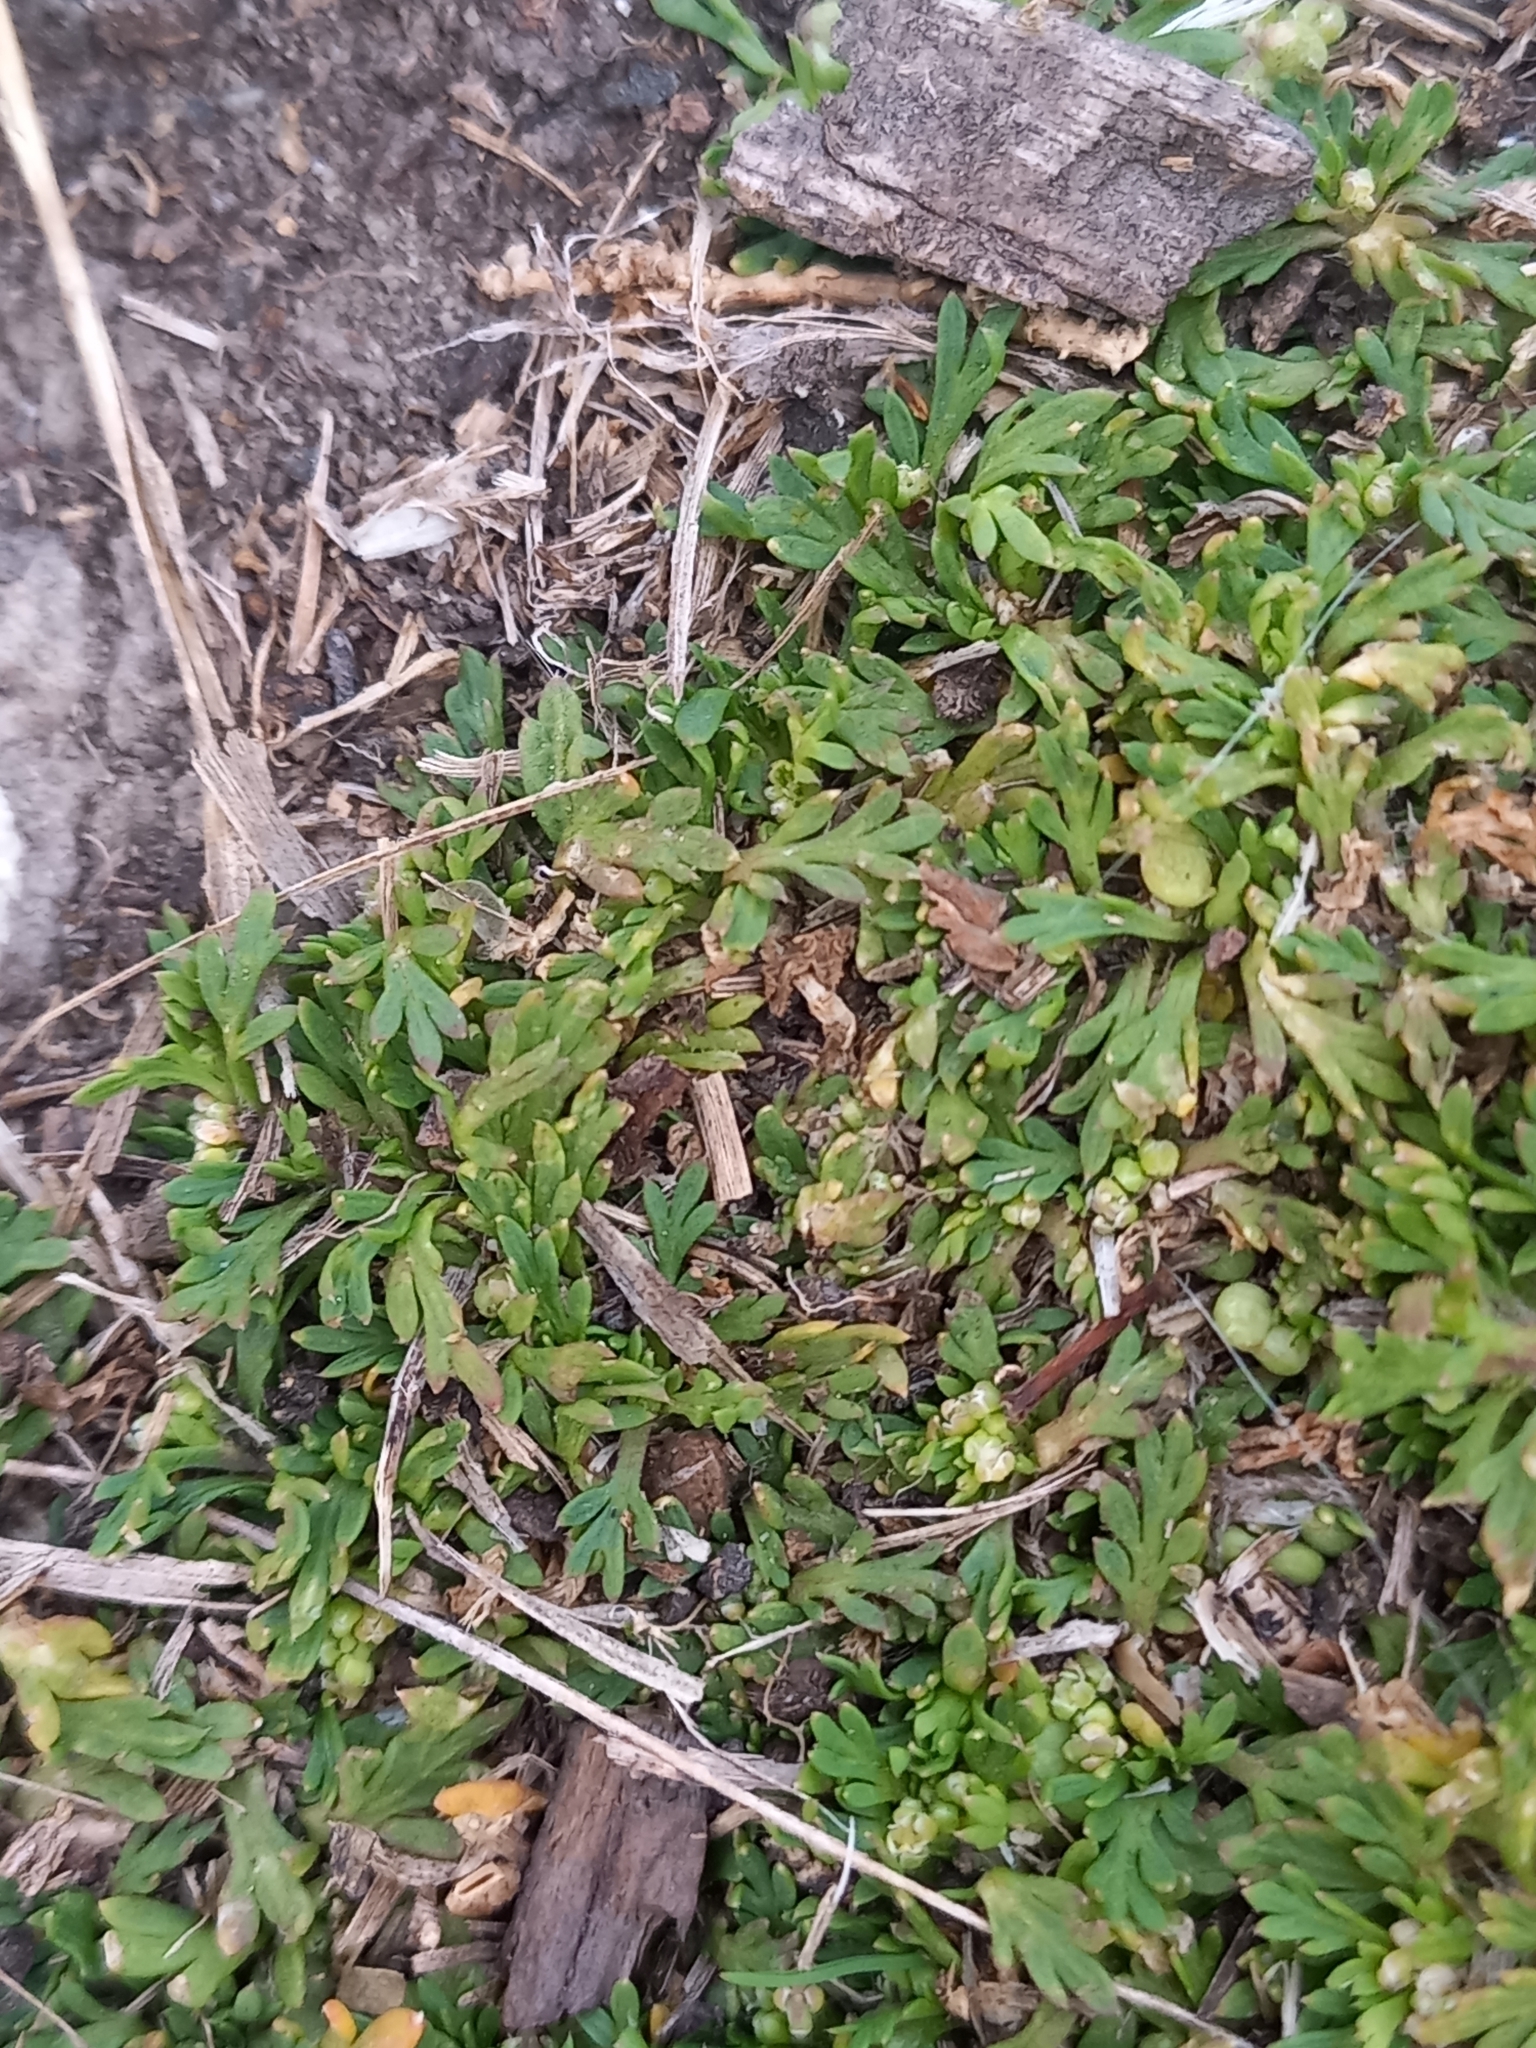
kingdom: Plantae
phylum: Tracheophyta
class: Magnoliopsida
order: Brassicales
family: Brassicaceae
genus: Lepidium
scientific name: Lepidium didymum
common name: Lesser swinecress
